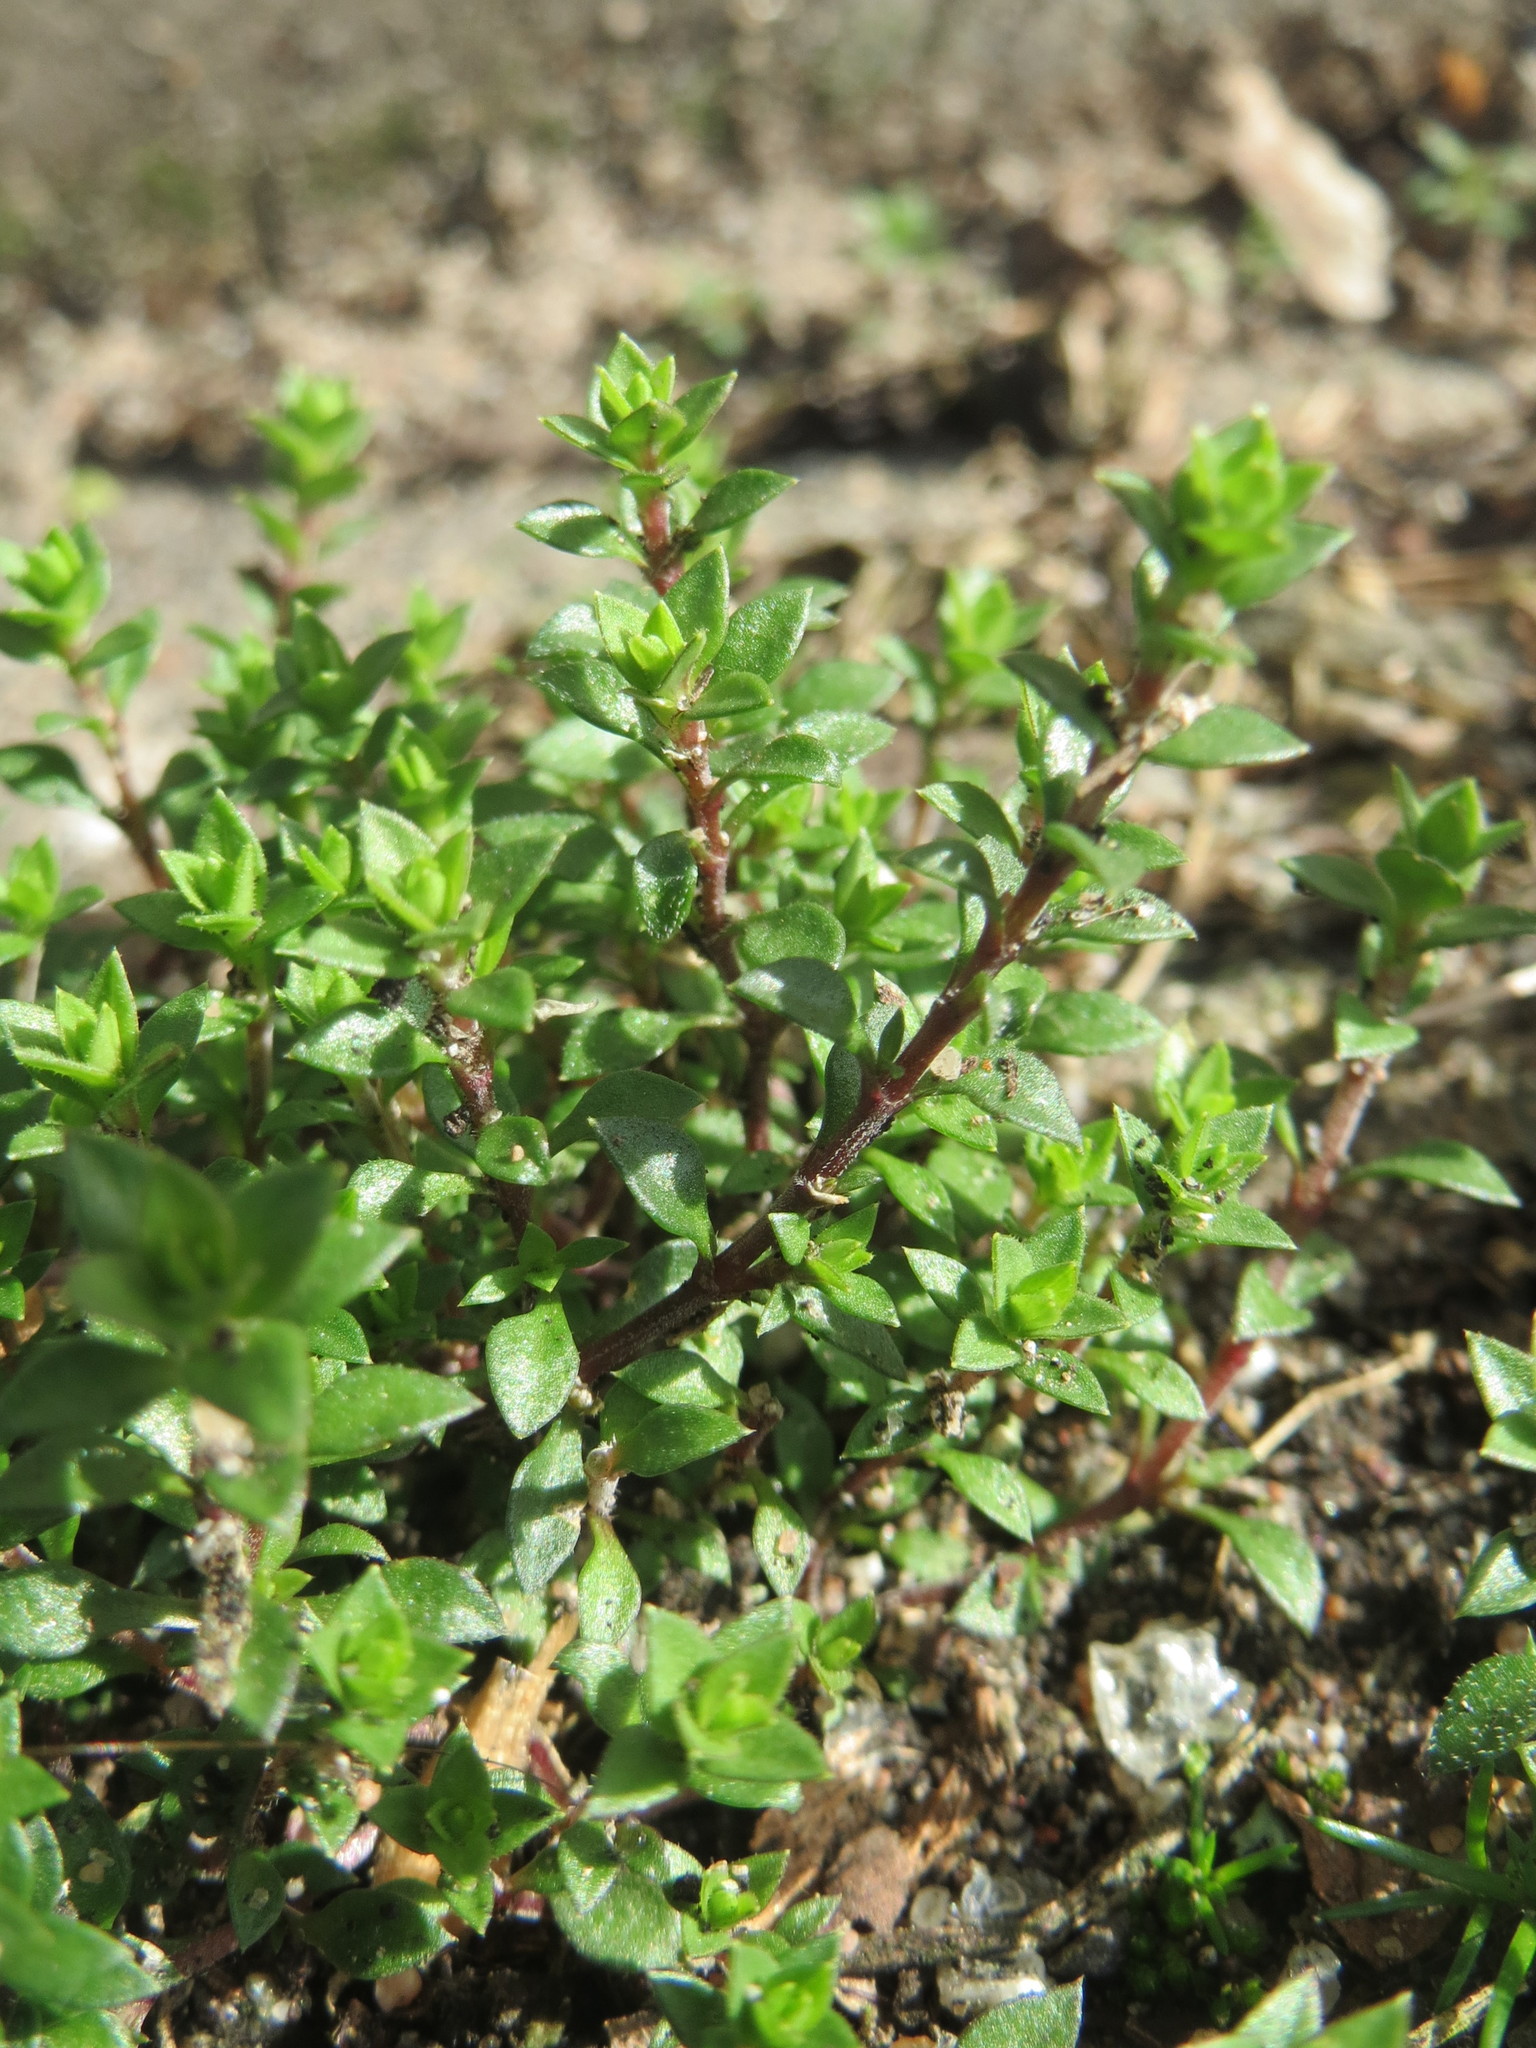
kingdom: Plantae
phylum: Tracheophyta
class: Magnoliopsida
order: Caryophyllales
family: Caryophyllaceae
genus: Arenaria
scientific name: Arenaria serpyllifolia
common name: Thyme-leaved sandwort
